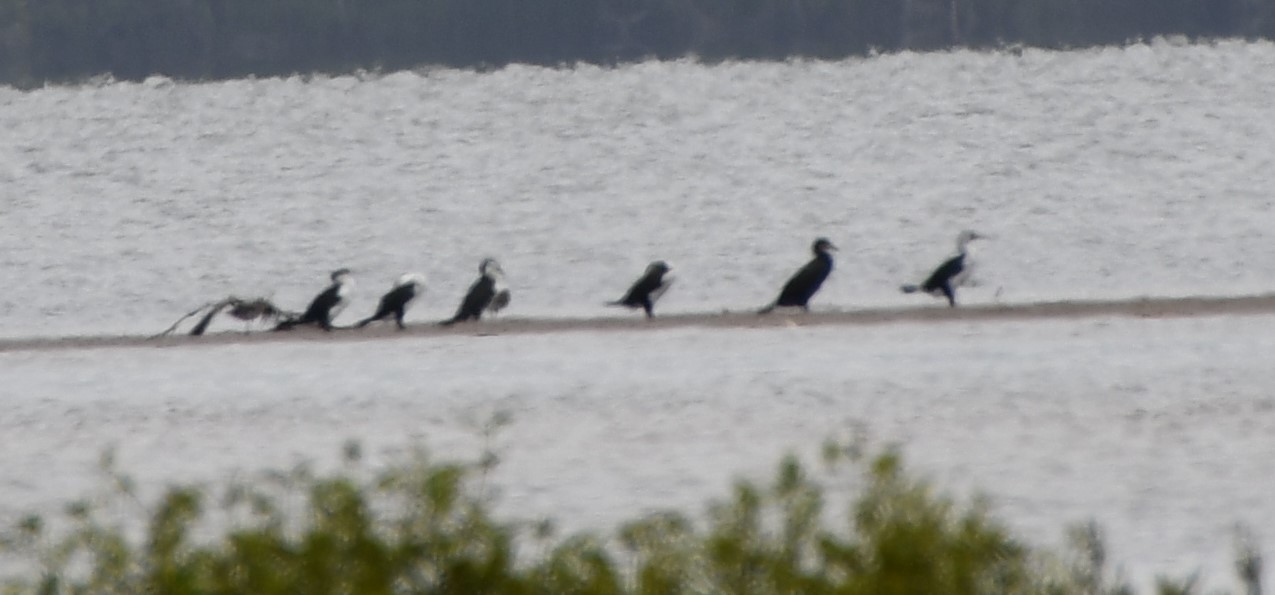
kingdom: Animalia
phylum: Chordata
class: Aves
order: Suliformes
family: Phalacrocoracidae
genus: Phalacrocorax
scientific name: Phalacrocorax carbo
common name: Great cormorant
